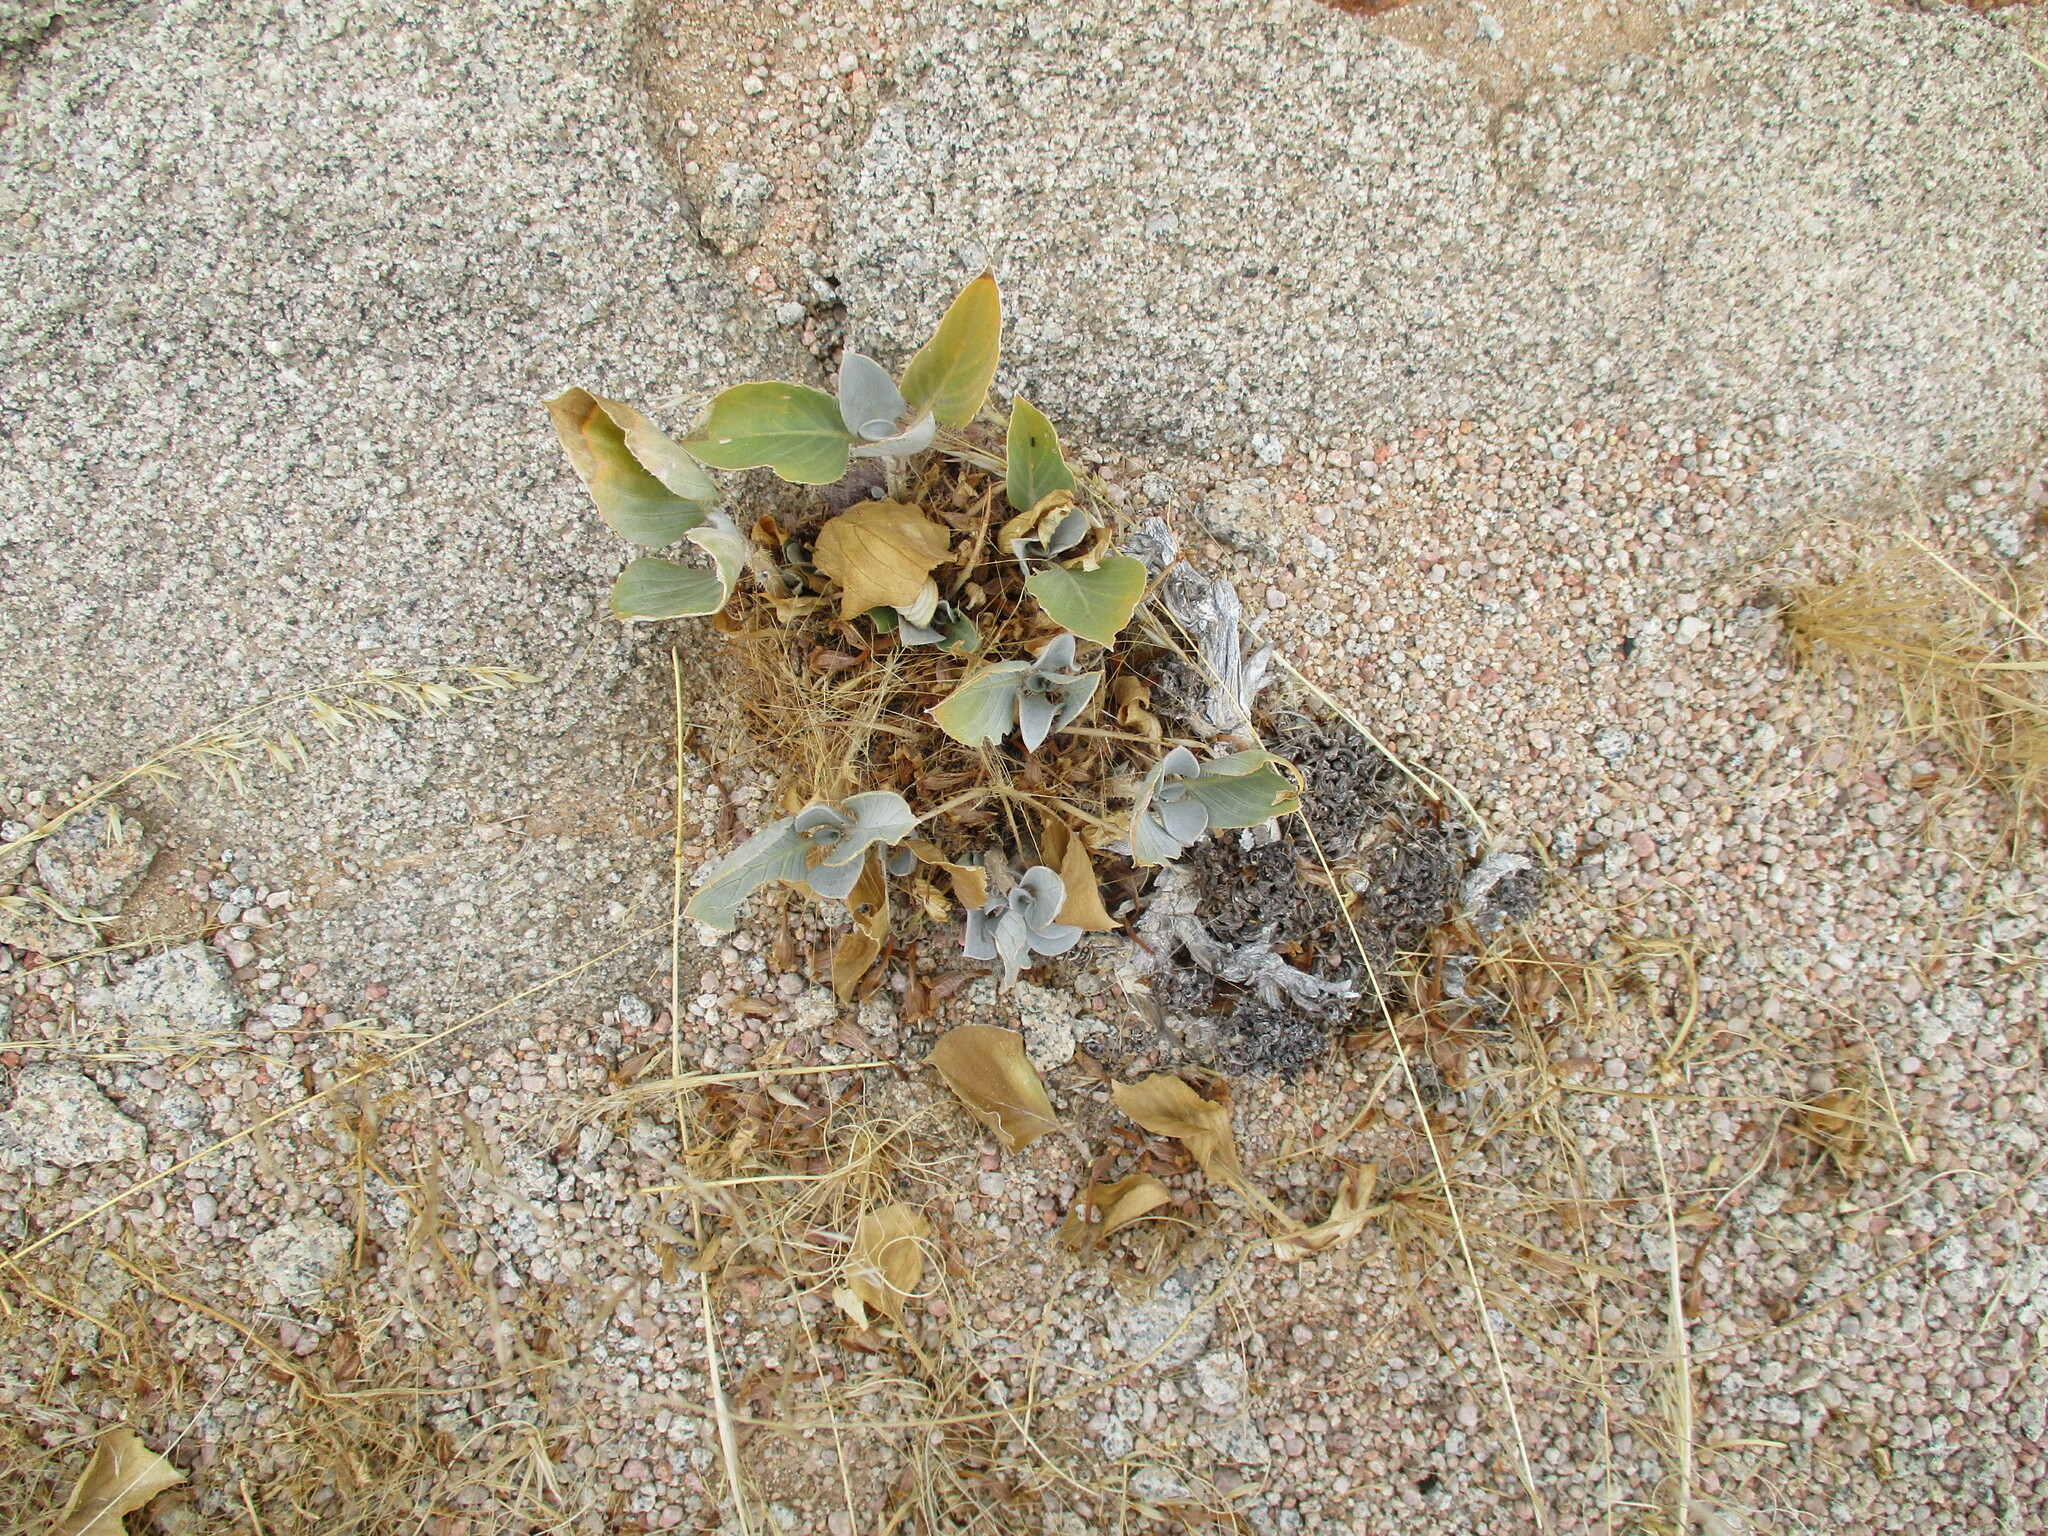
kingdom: Plantae
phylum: Tracheophyta
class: Magnoliopsida
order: Lamiales
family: Acanthaceae
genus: Petalidium
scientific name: Petalidium variabile
